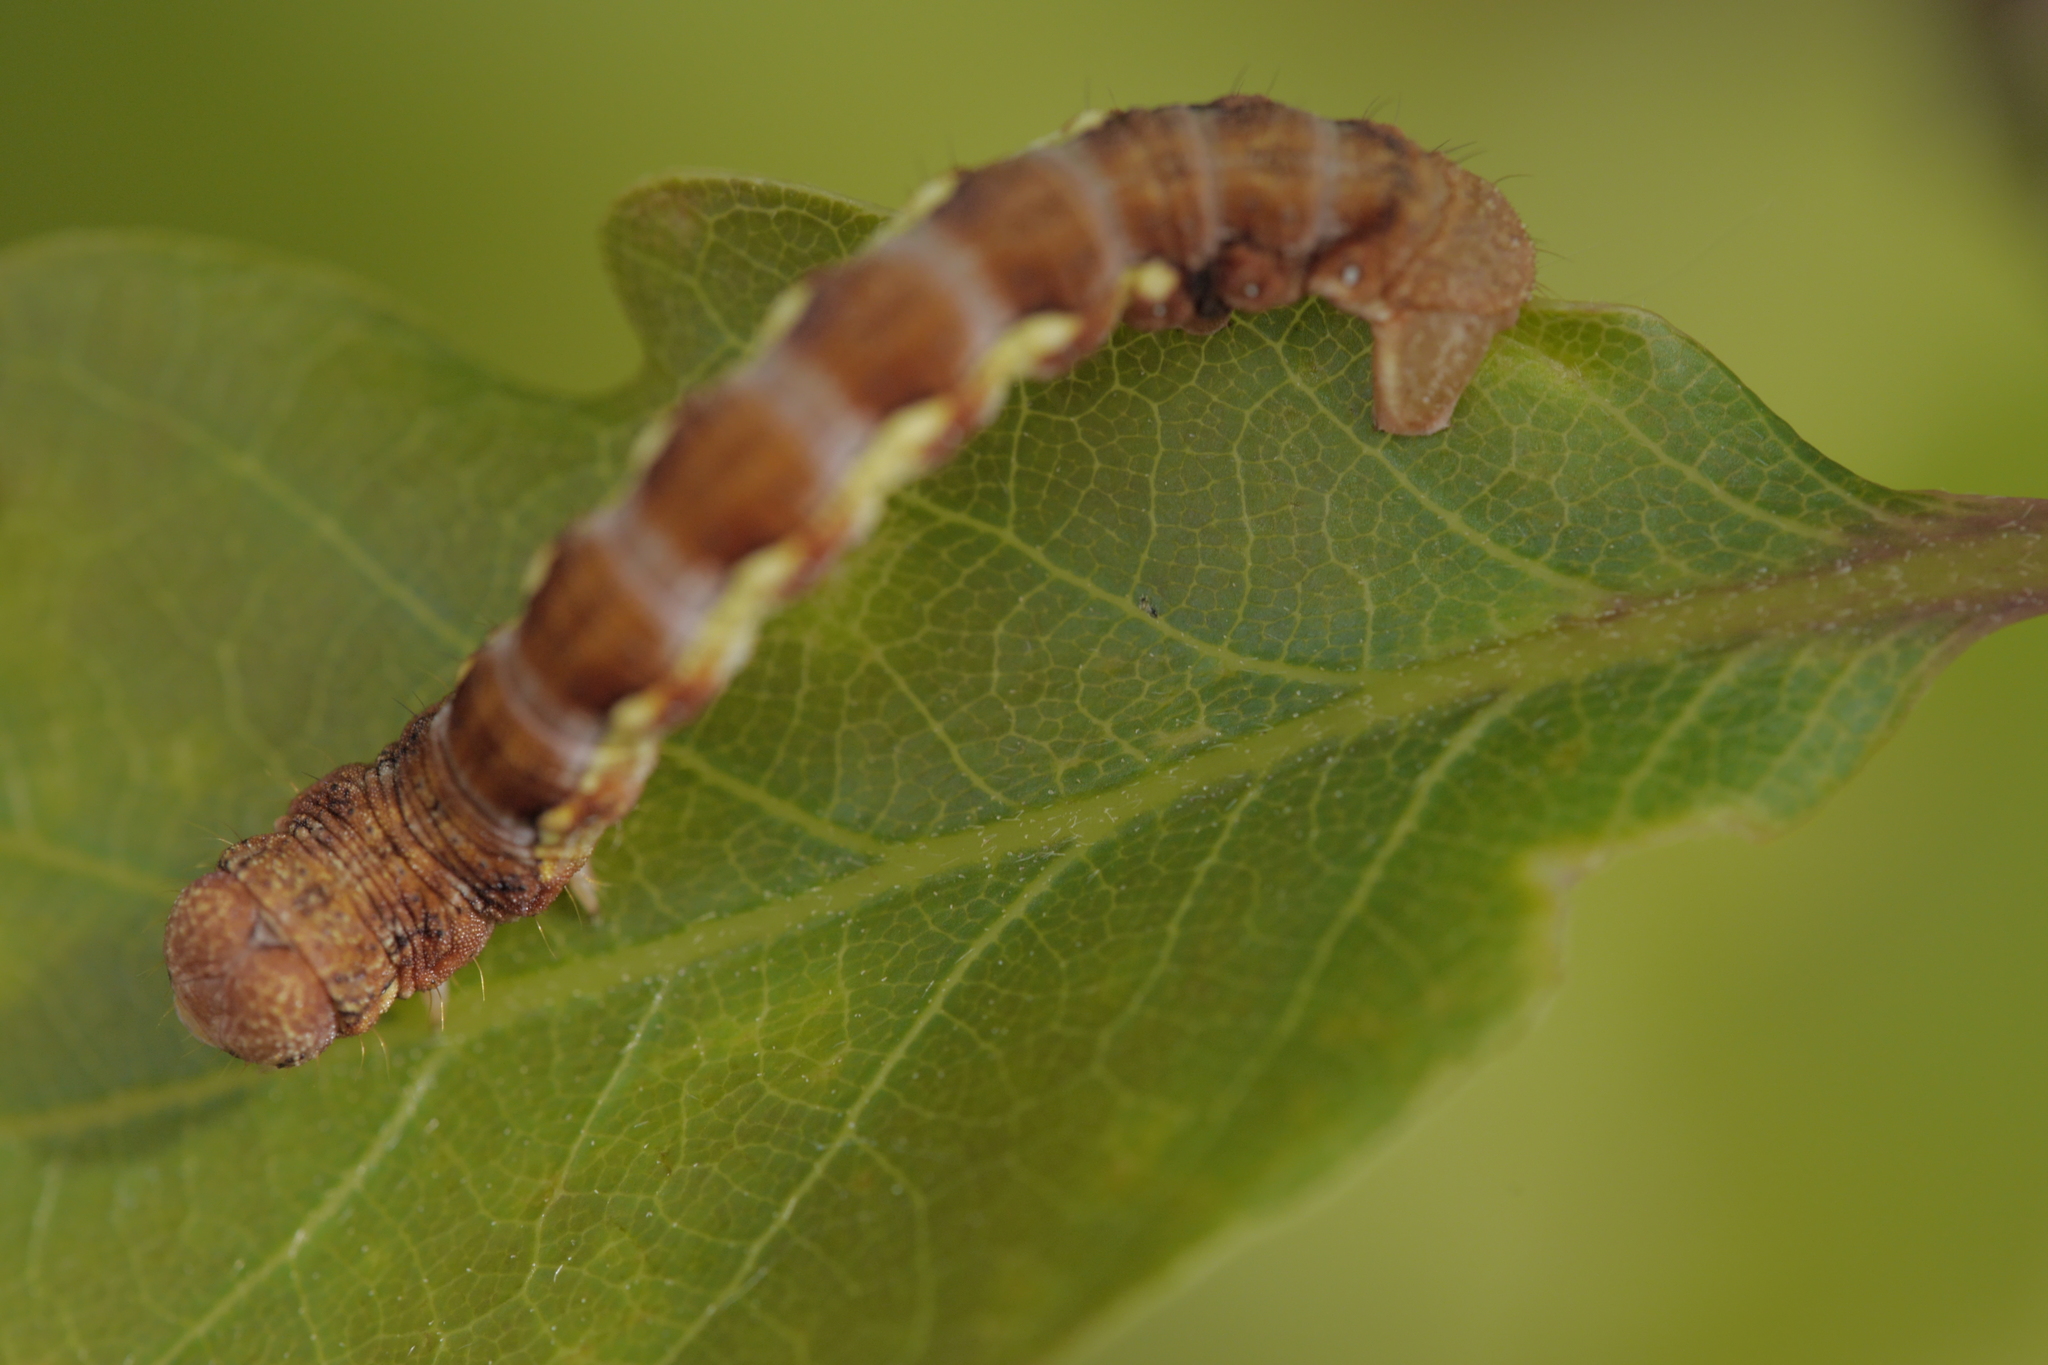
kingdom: Animalia
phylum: Arthropoda
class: Insecta
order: Lepidoptera
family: Geometridae
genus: Erannis
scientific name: Erannis defoliaria
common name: Mottled umber
